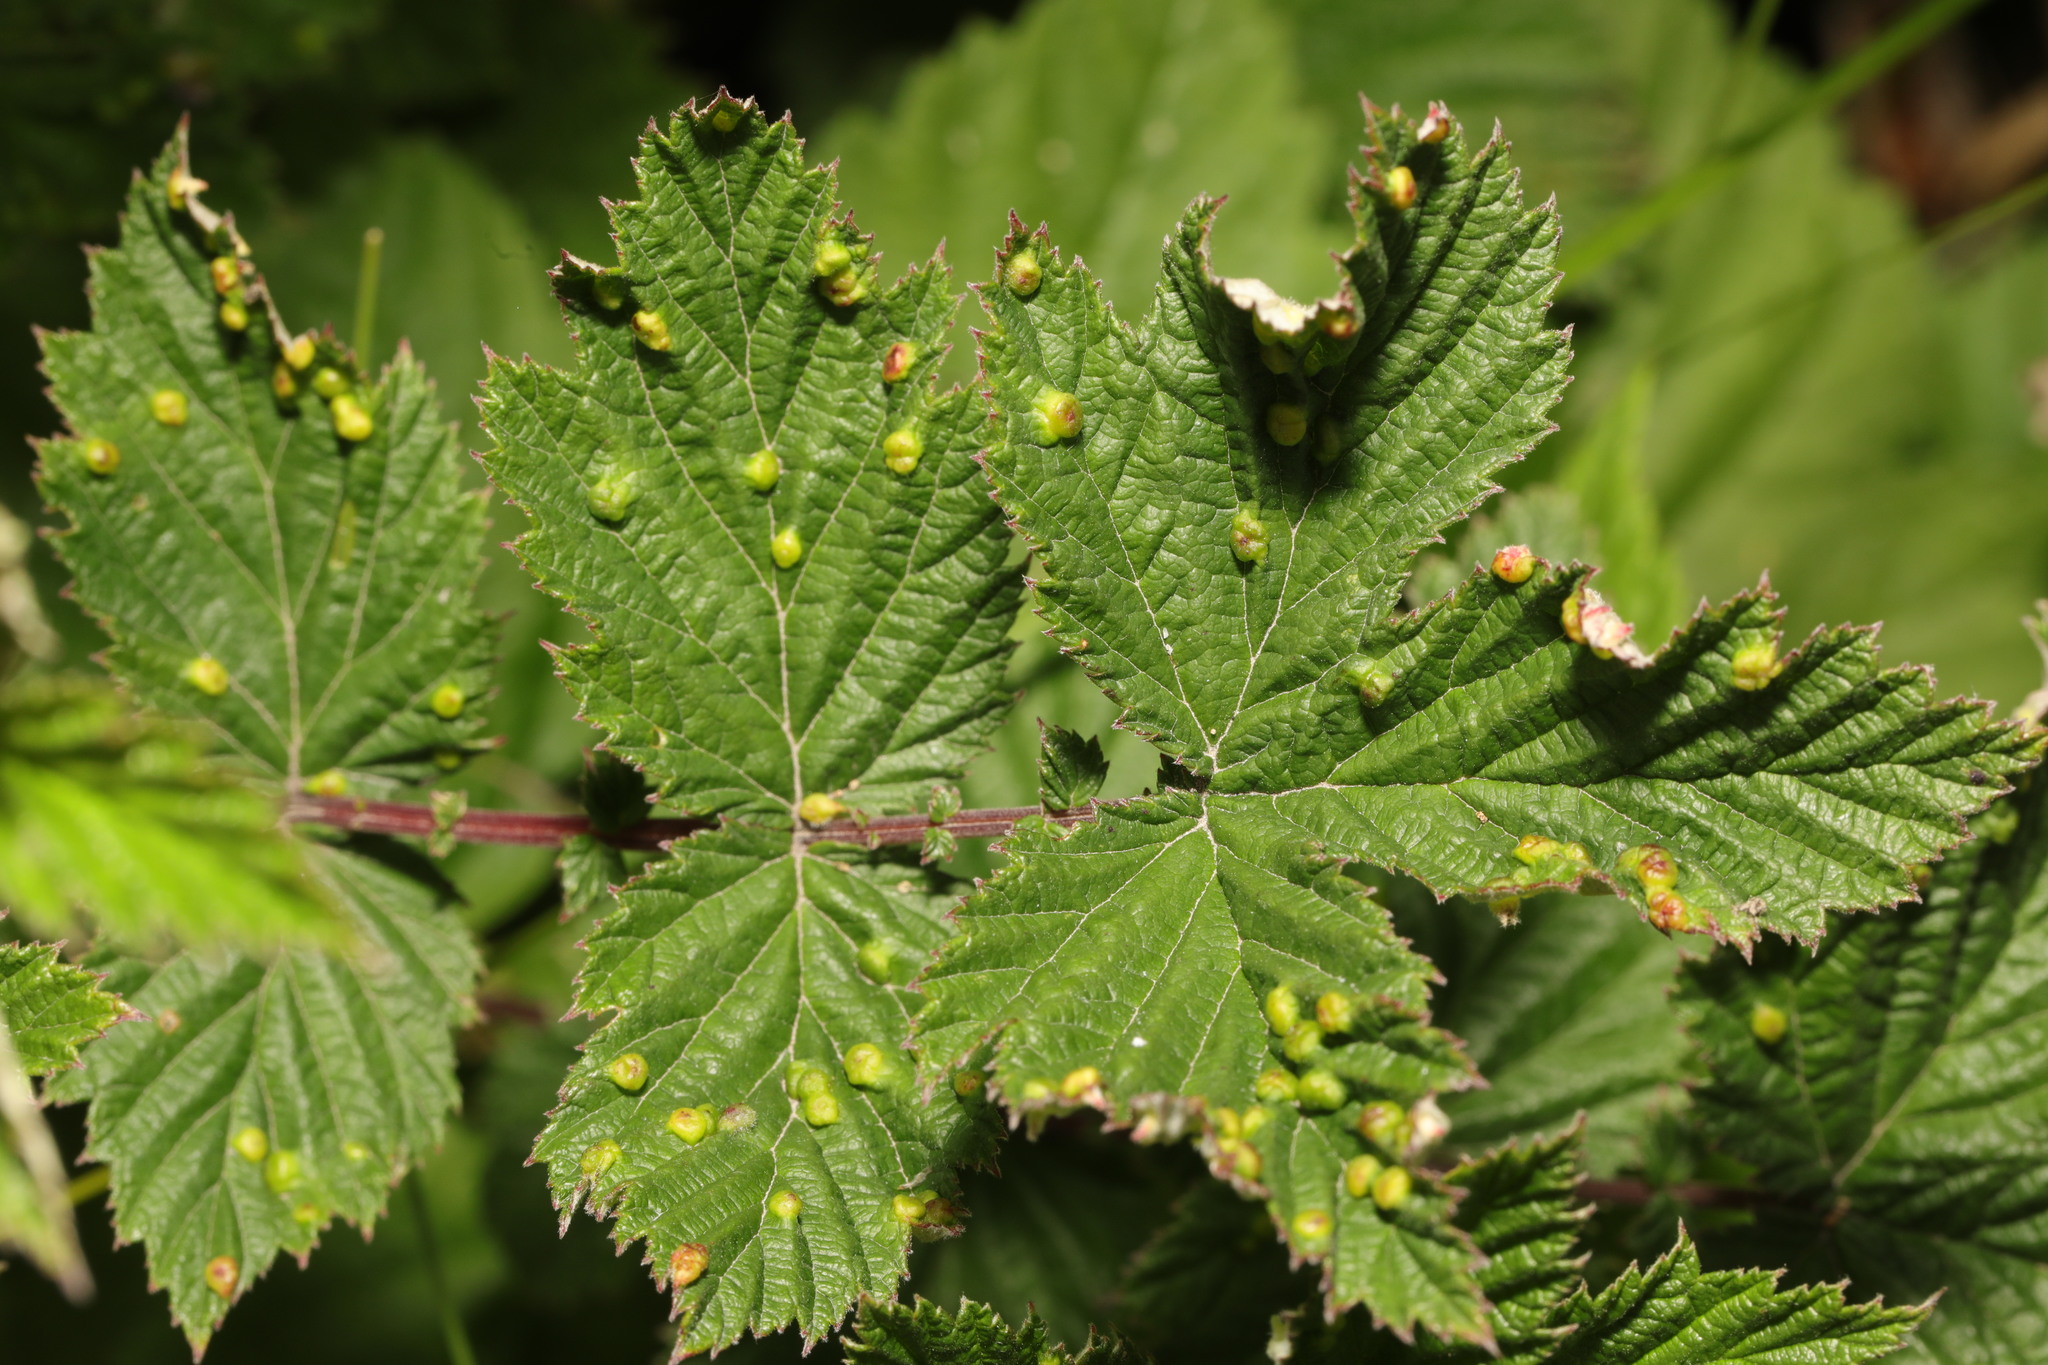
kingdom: Animalia
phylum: Arthropoda
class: Insecta
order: Diptera
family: Cecidomyiidae
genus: Dasineura
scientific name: Dasineura ulmaria
